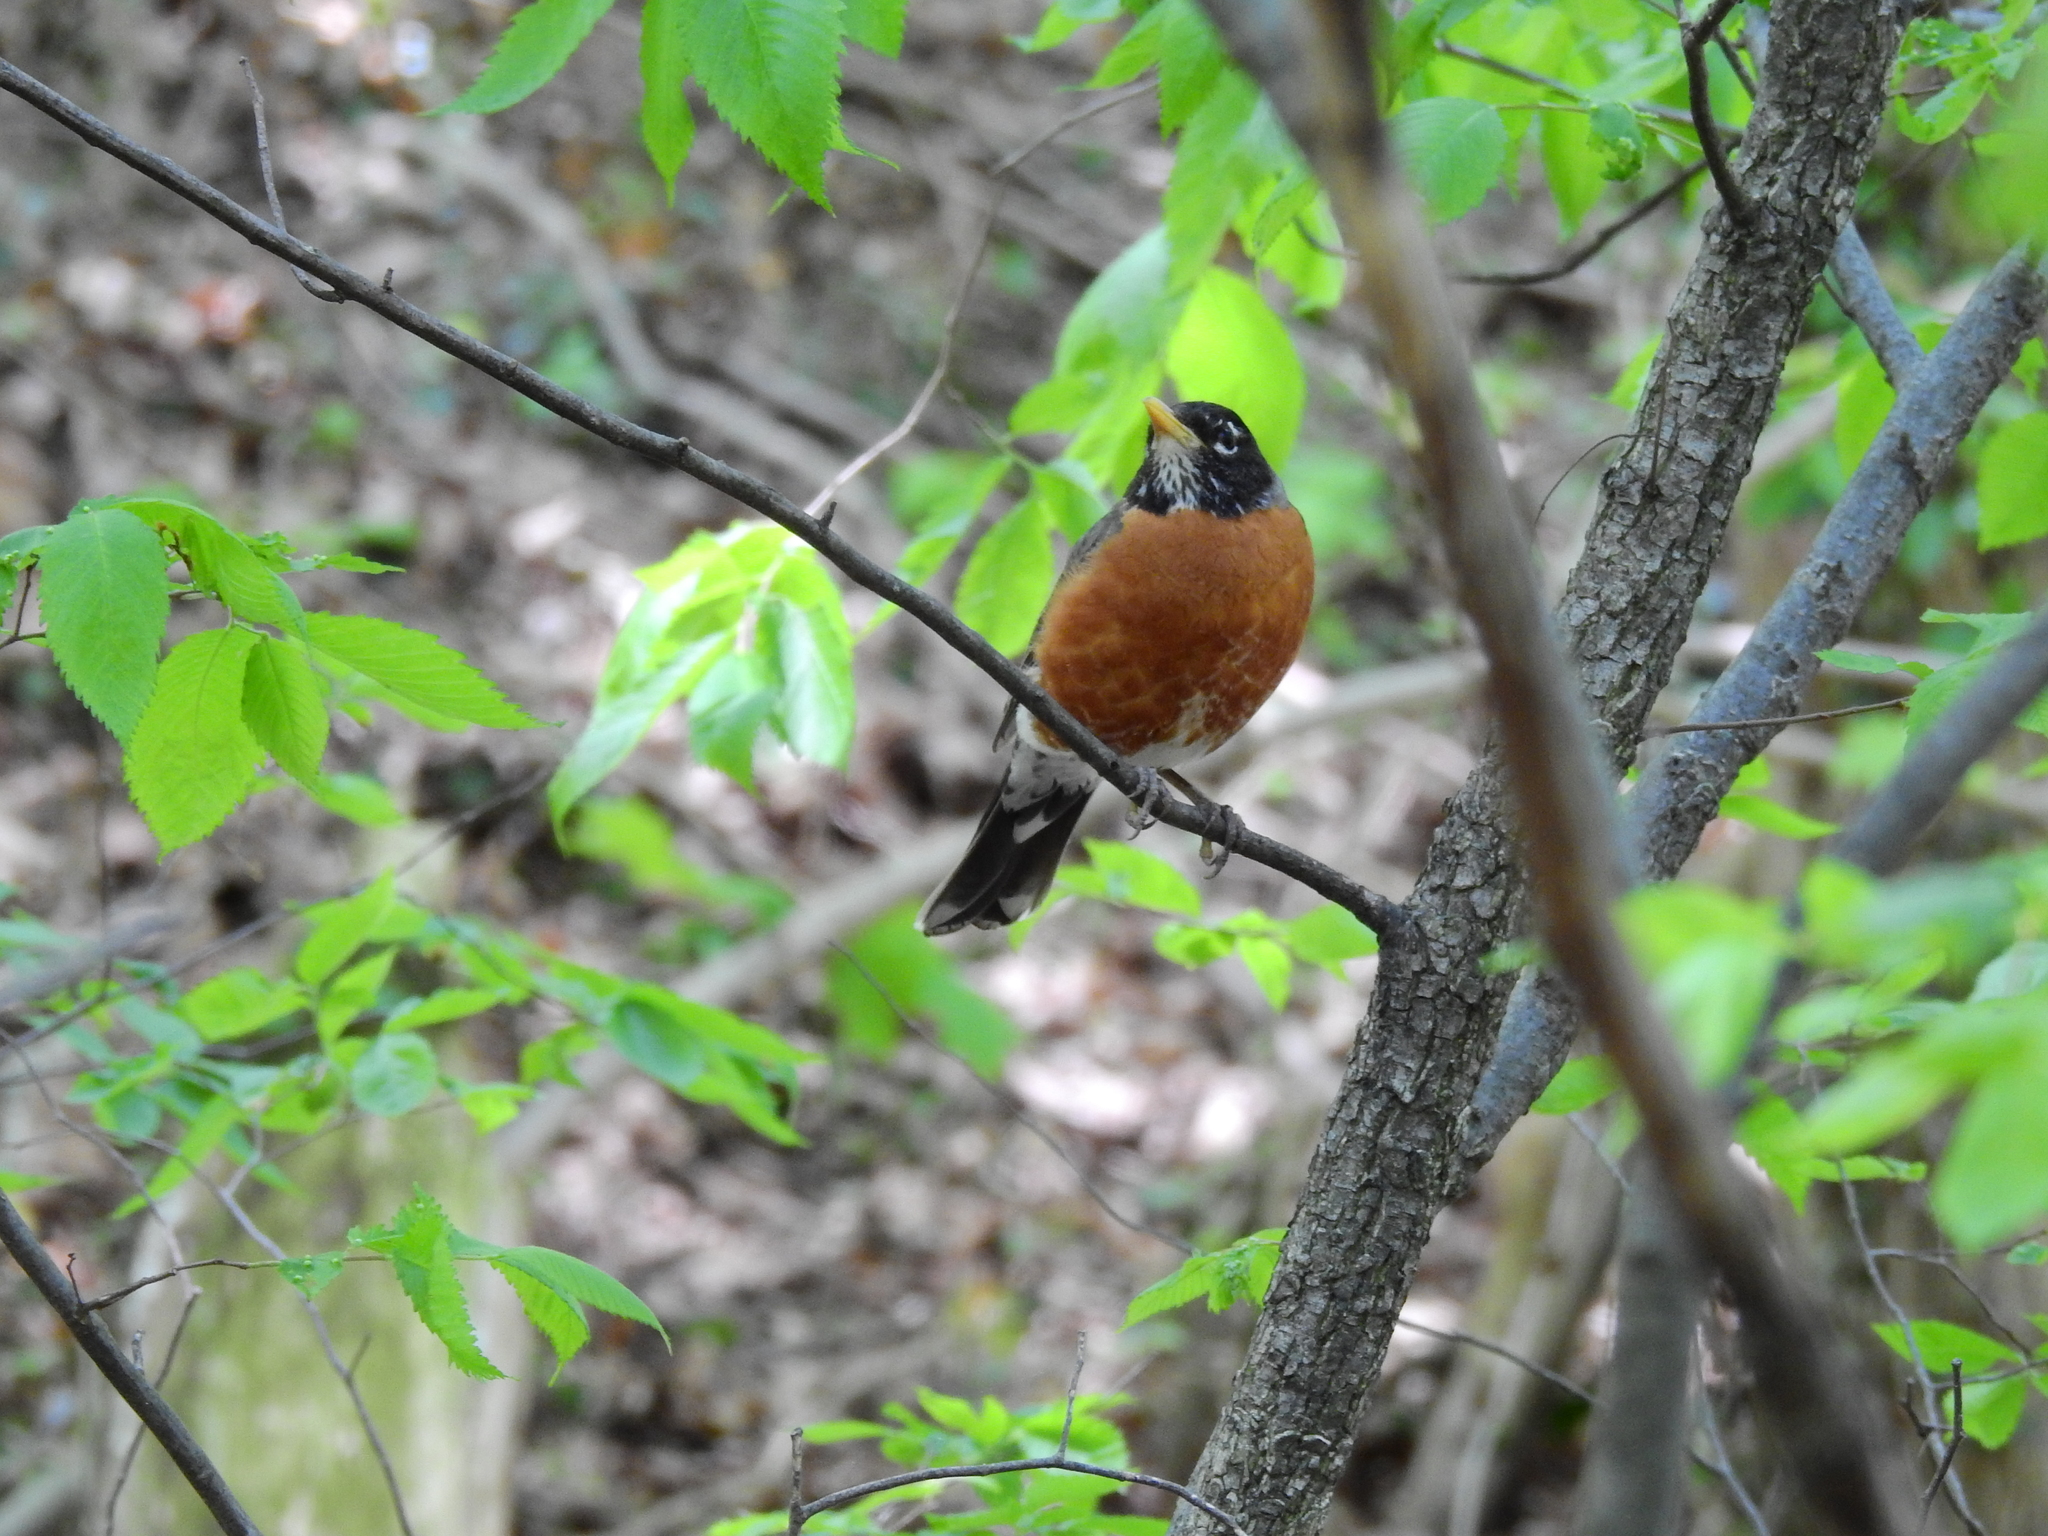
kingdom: Animalia
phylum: Chordata
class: Aves
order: Passeriformes
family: Turdidae
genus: Turdus
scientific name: Turdus migratorius
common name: American robin
